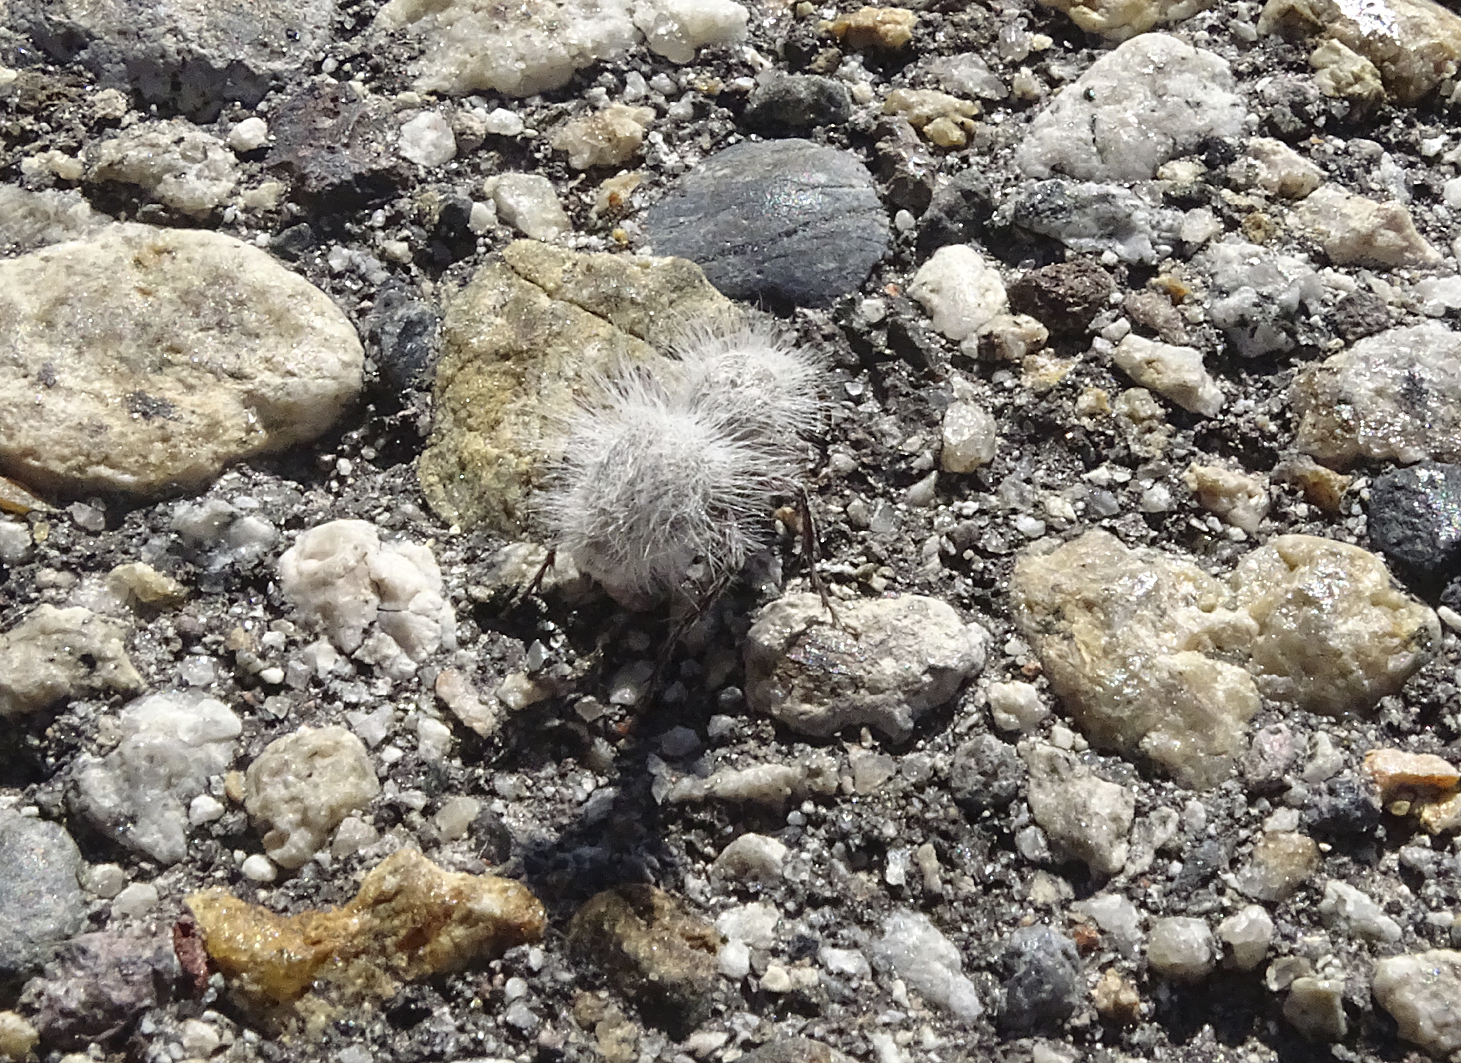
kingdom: Animalia
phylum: Arthropoda
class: Insecta
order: Hymenoptera
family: Mutillidae
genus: Dasymutilla
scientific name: Dasymutilla pseudopappus
